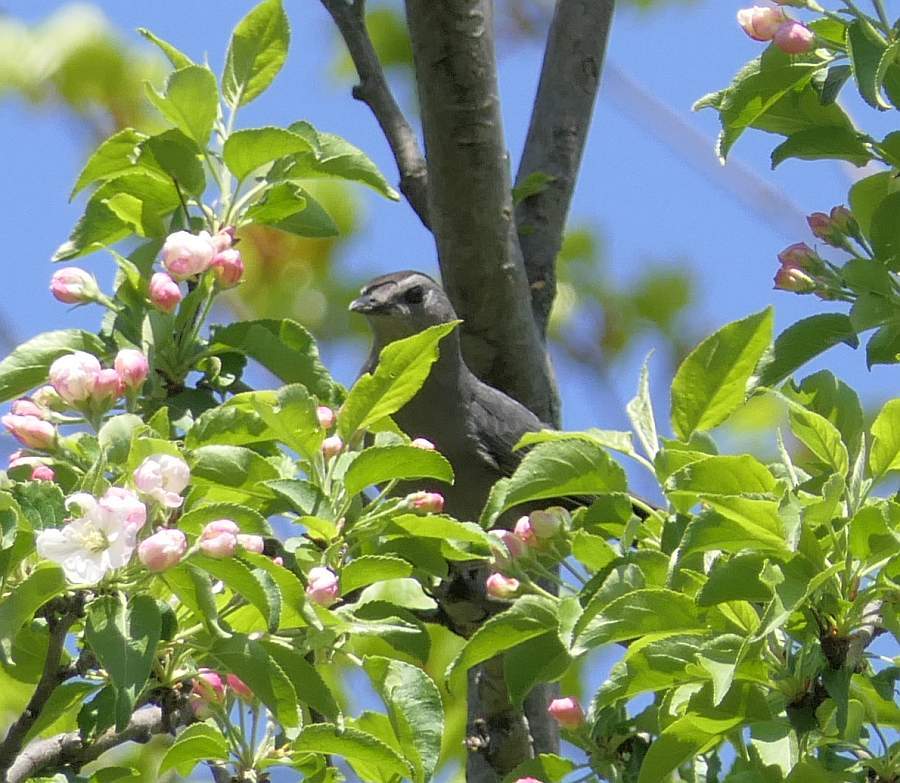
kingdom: Animalia
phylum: Chordata
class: Aves
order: Passeriformes
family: Mimidae
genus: Dumetella
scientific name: Dumetella carolinensis
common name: Gray catbird
